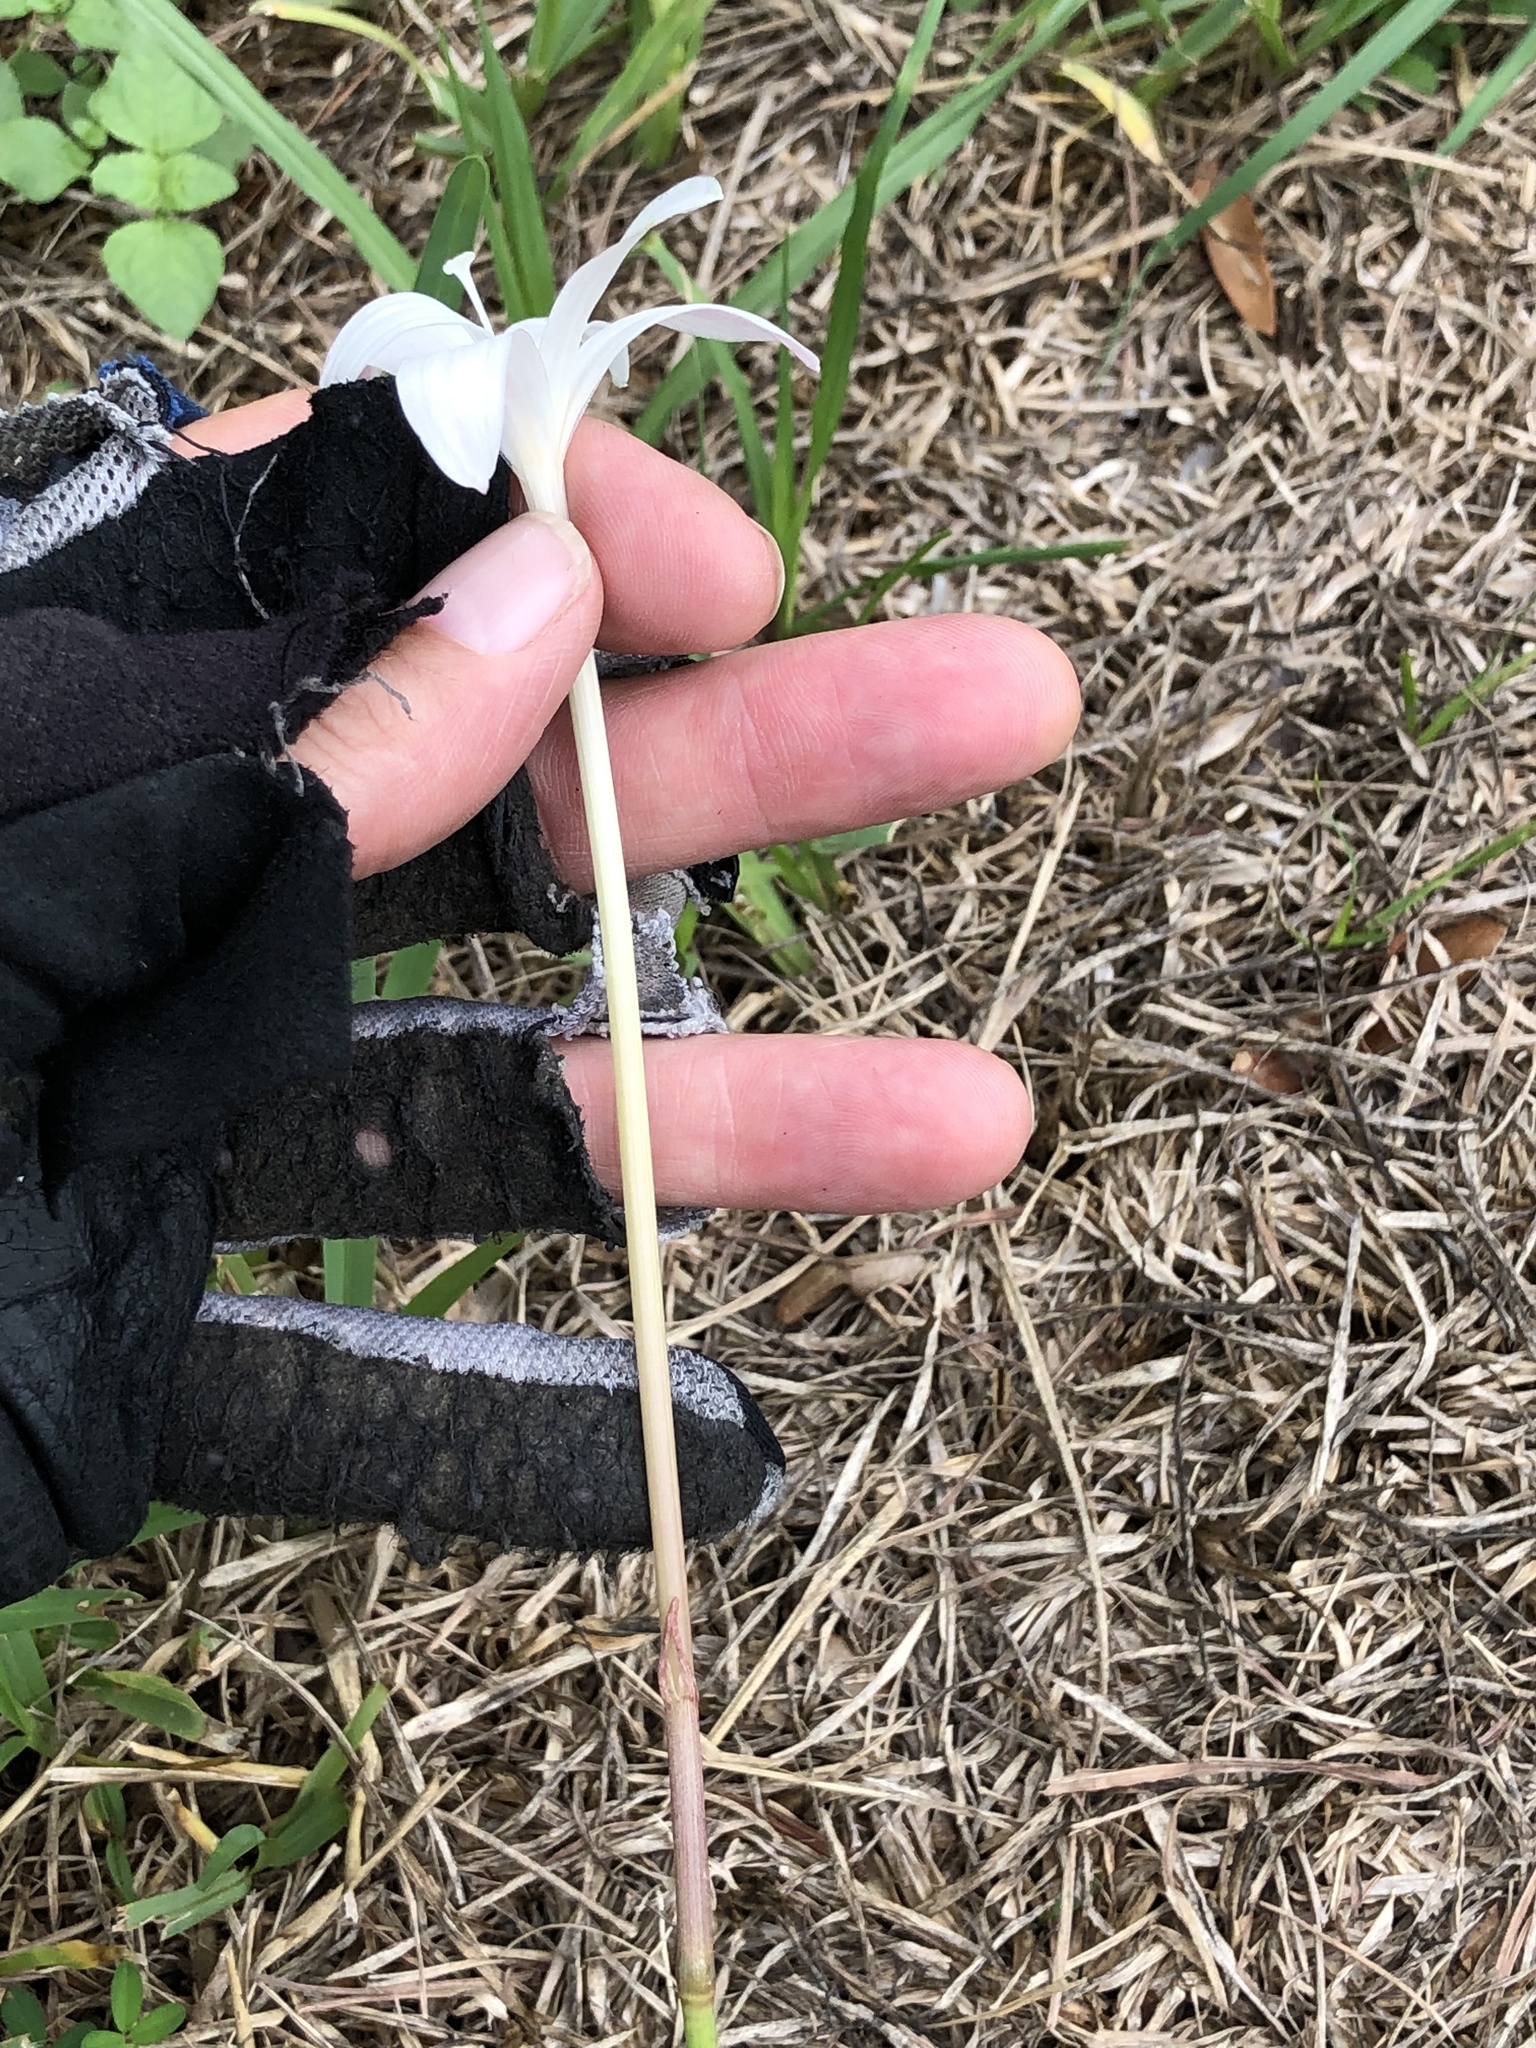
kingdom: Plantae
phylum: Tracheophyta
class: Liliopsida
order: Asparagales
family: Amaryllidaceae
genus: Zephyranthes
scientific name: Zephyranthes traubii
